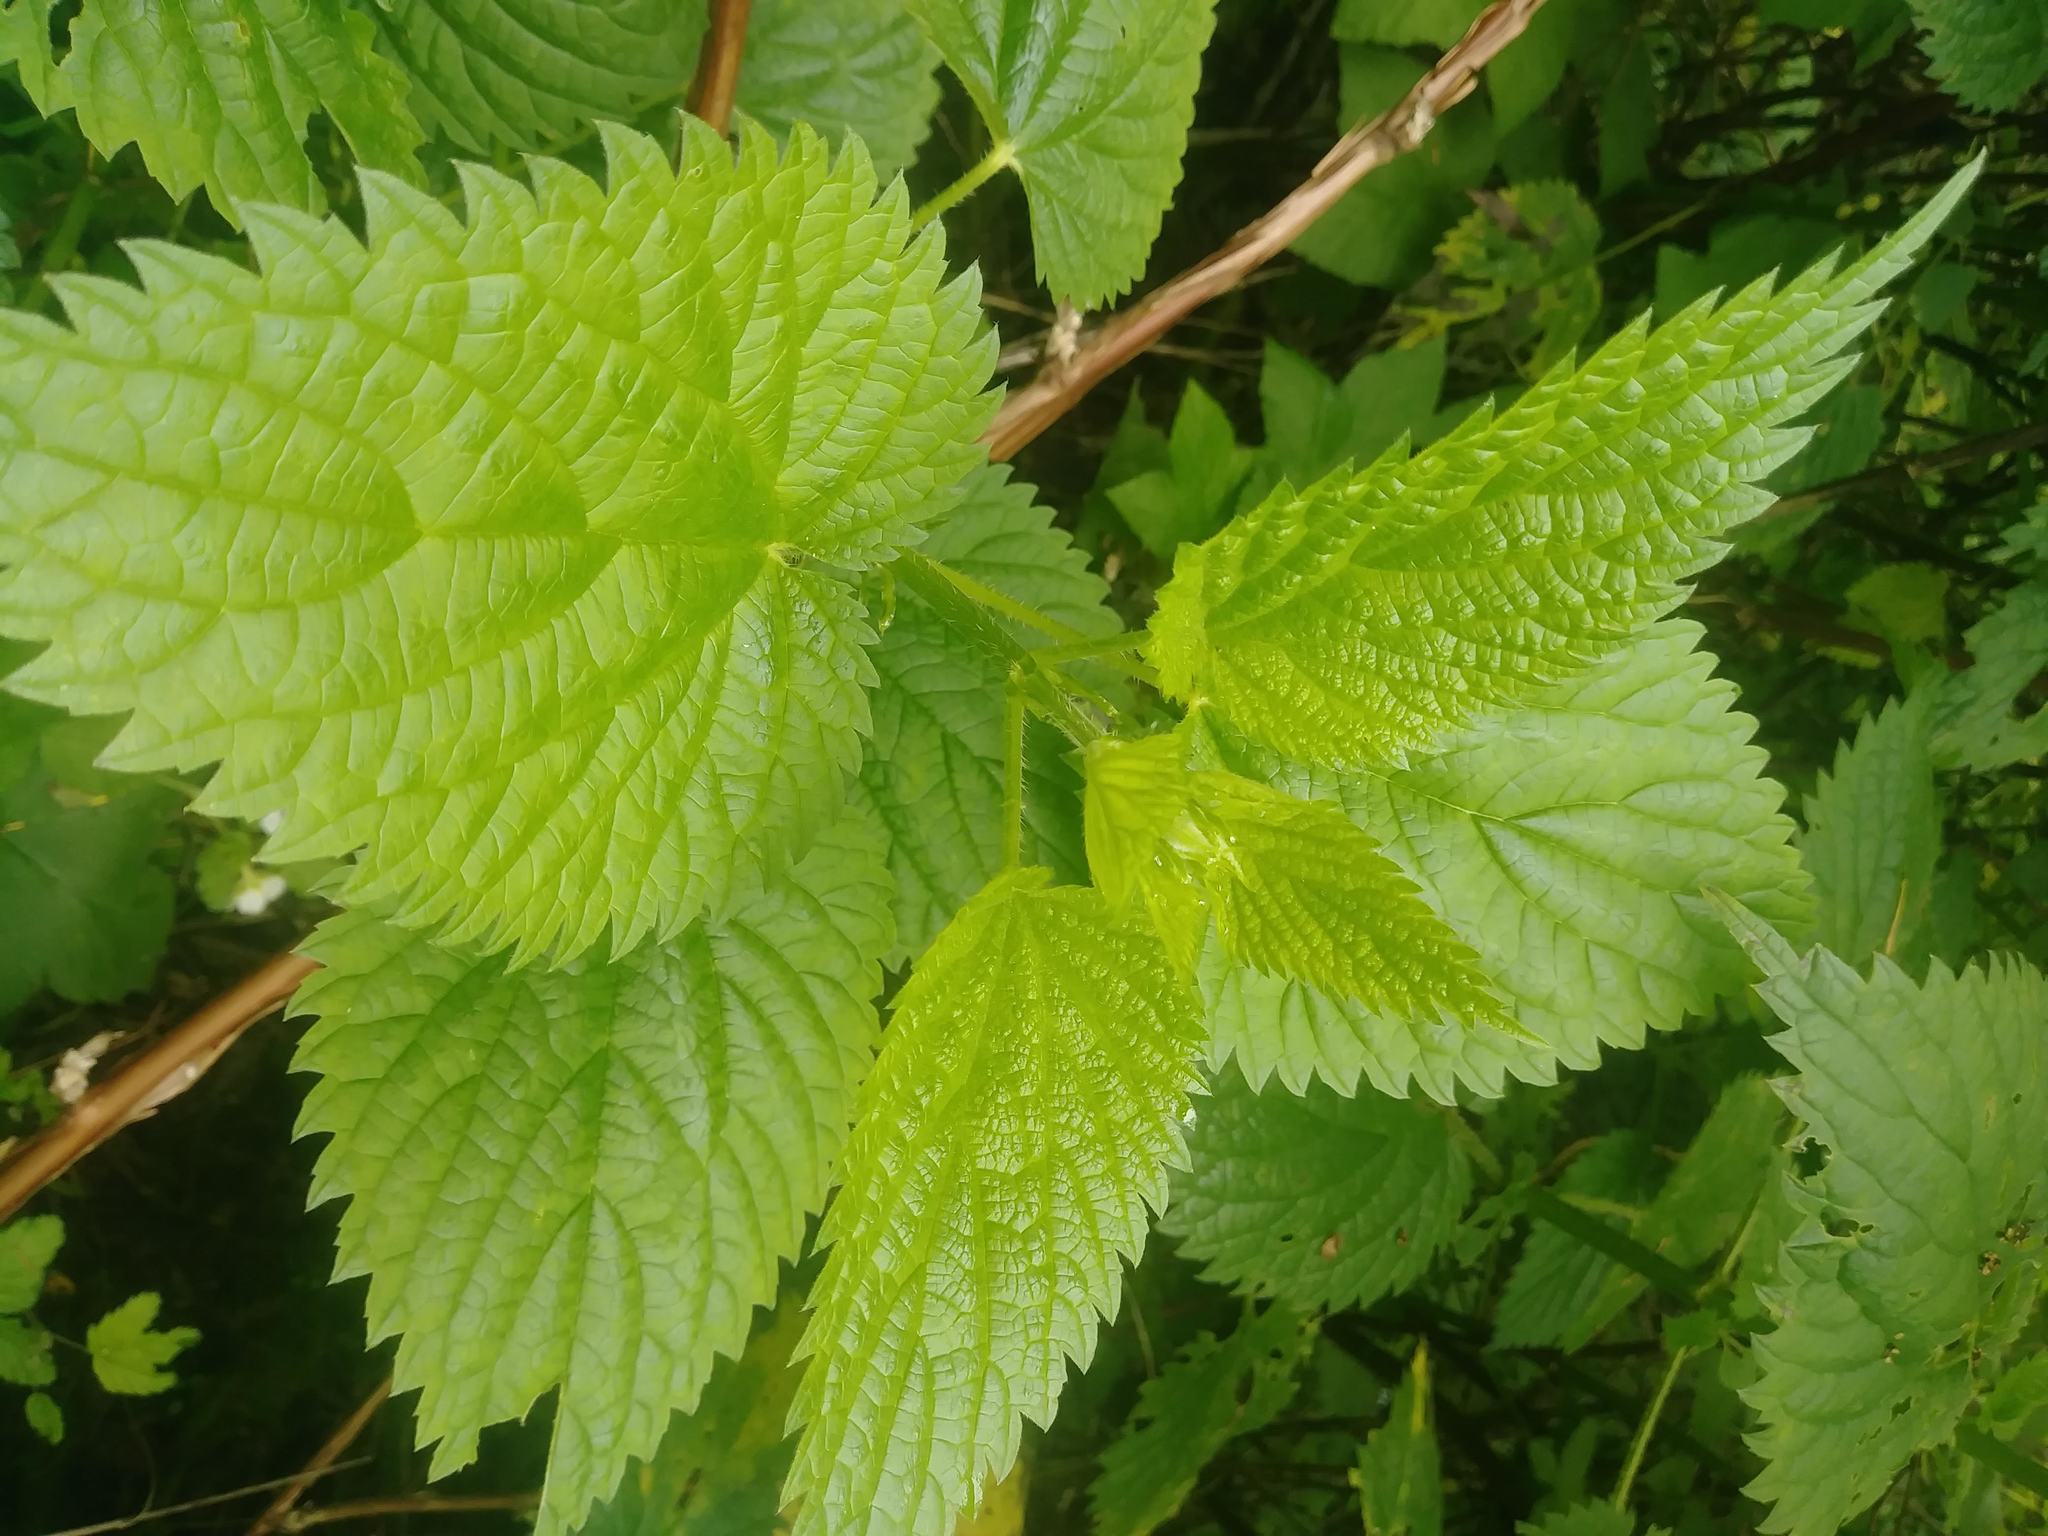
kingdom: Plantae
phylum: Tracheophyta
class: Magnoliopsida
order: Rosales
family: Urticaceae
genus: Urtica
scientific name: Urtica dioica
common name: Common nettle
